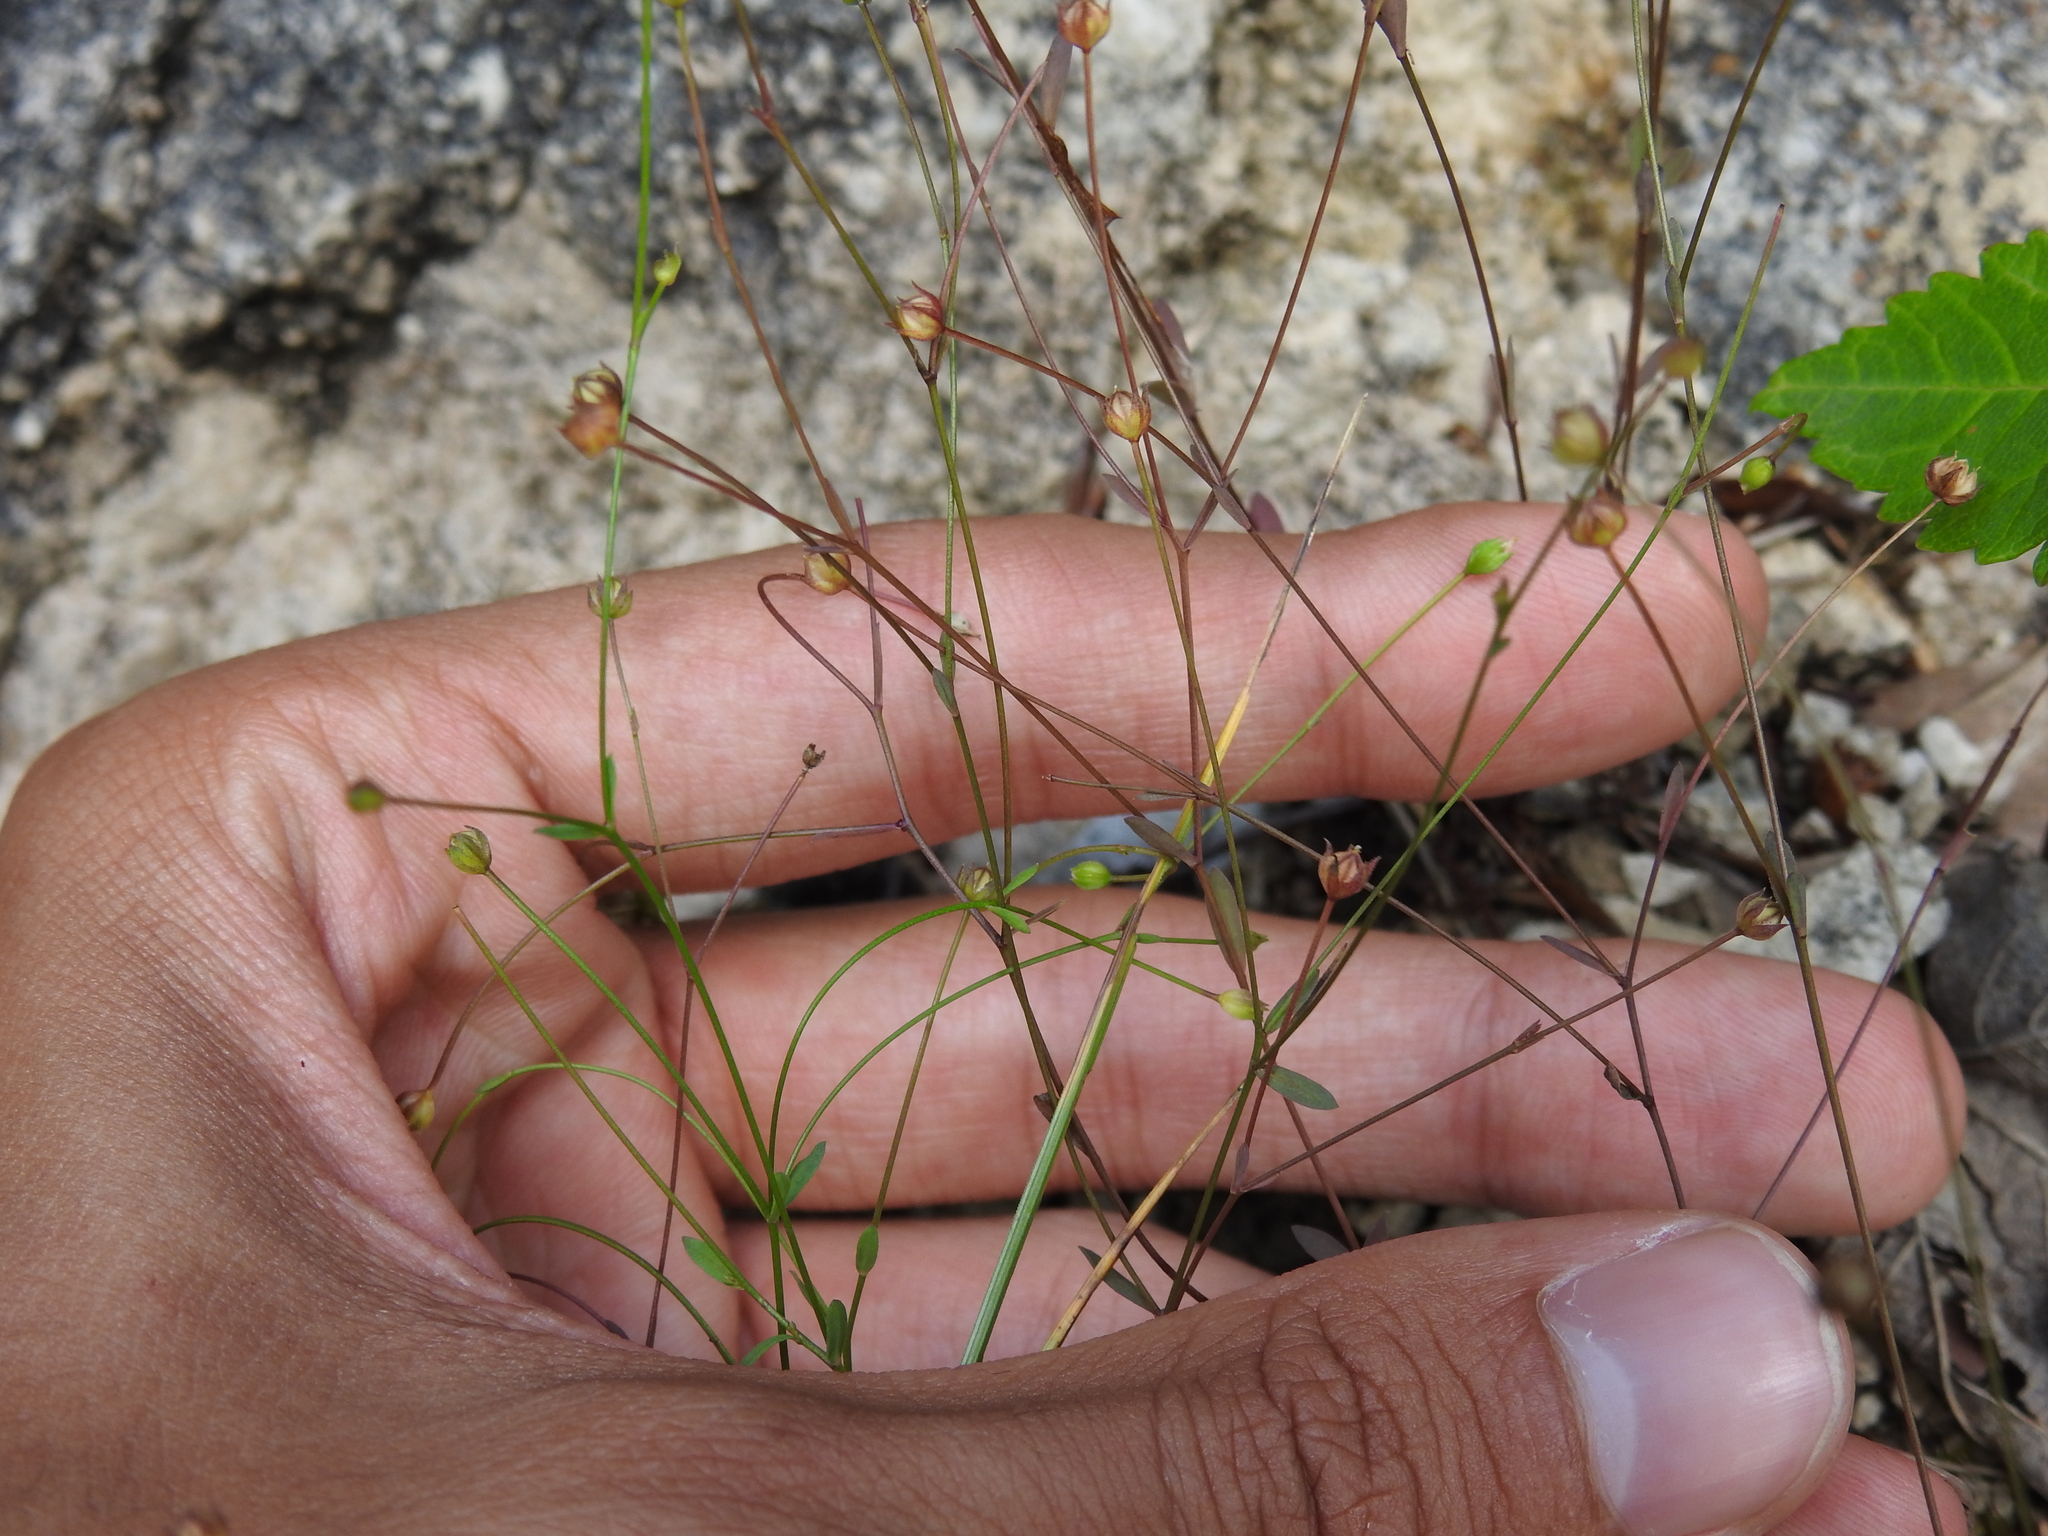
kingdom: Plantae
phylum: Tracheophyta
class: Magnoliopsida
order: Malpighiales
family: Linaceae
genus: Linum
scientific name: Linum catharticum
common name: Fairy flax
